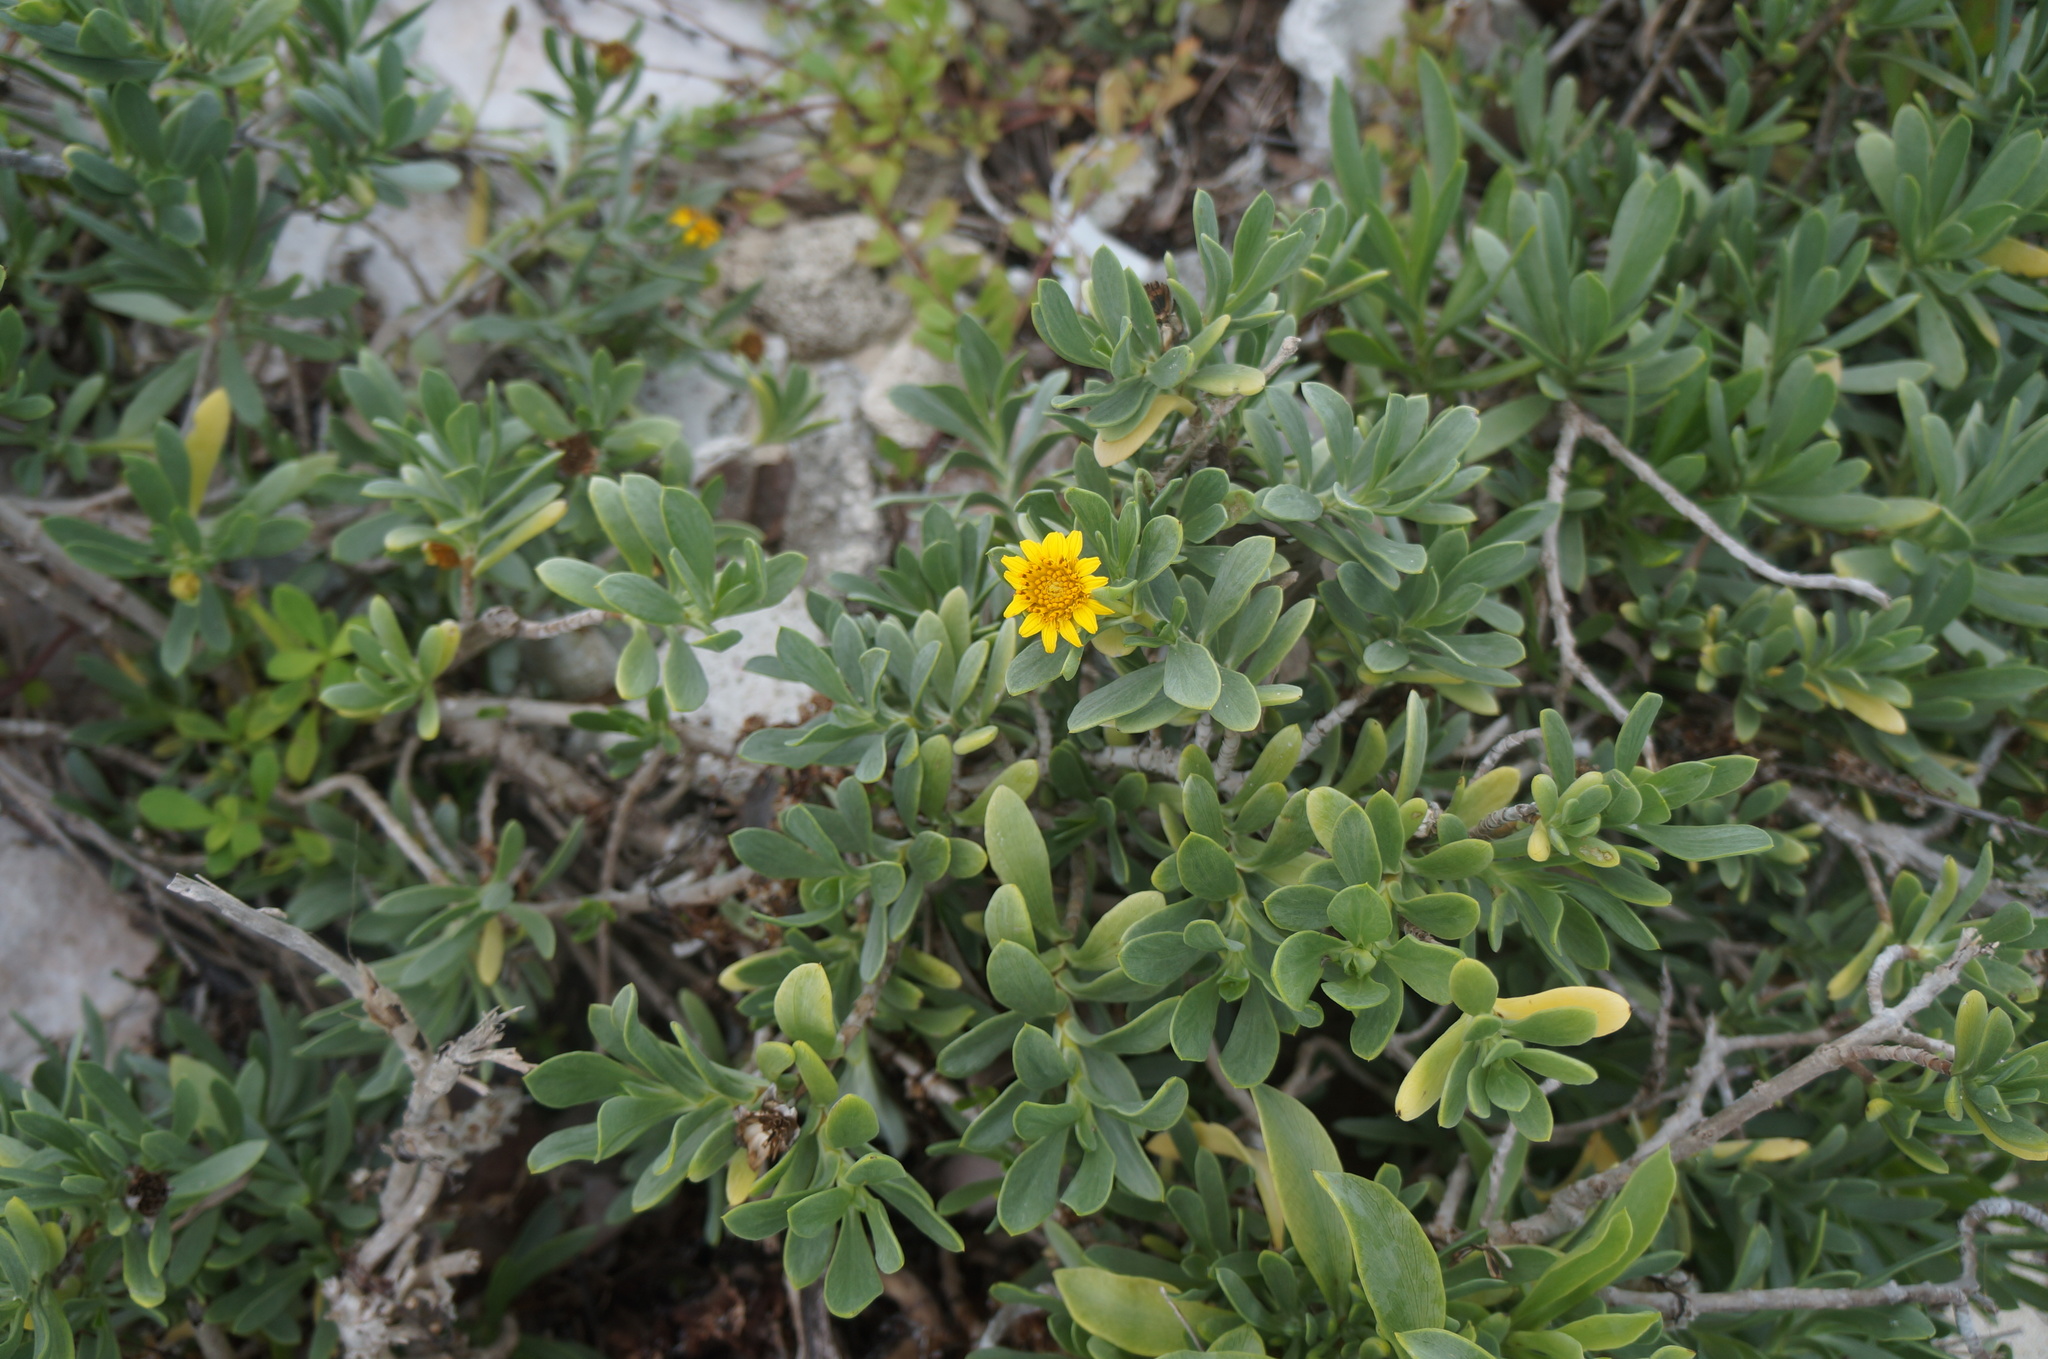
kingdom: Plantae
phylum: Tracheophyta
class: Magnoliopsida
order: Asterales
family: Asteraceae
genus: Borrichia
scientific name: Borrichia arborescens
